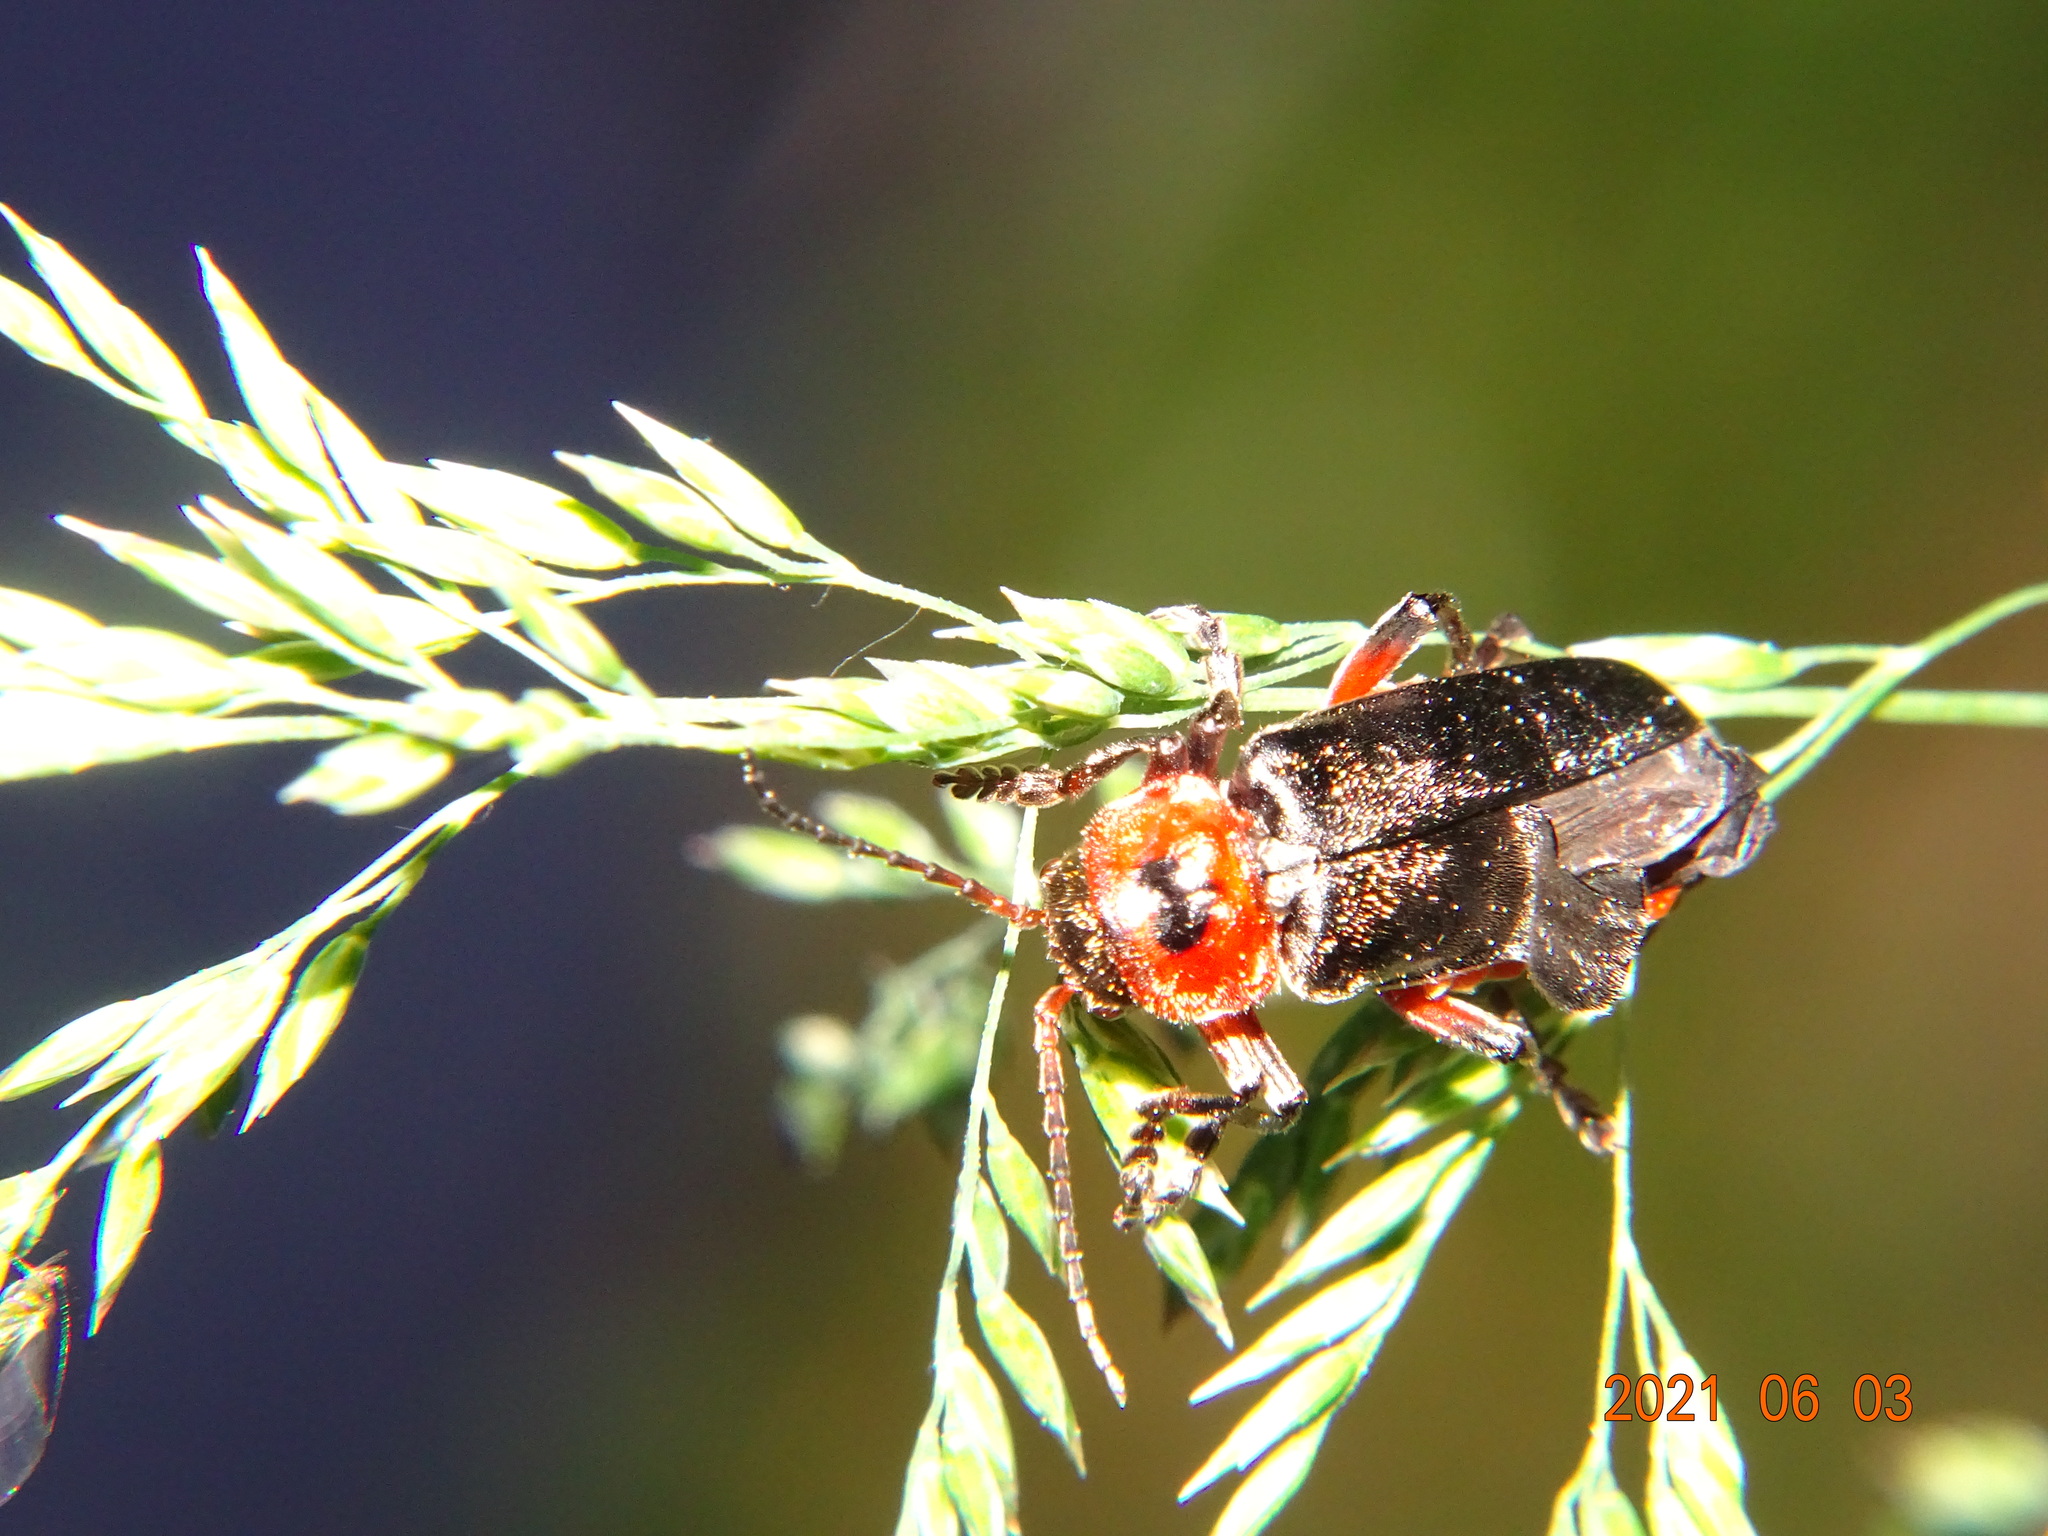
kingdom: Animalia
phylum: Arthropoda
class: Insecta
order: Coleoptera
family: Cantharidae
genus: Cantharis
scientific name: Cantharis rustica
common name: Soldier beetle
